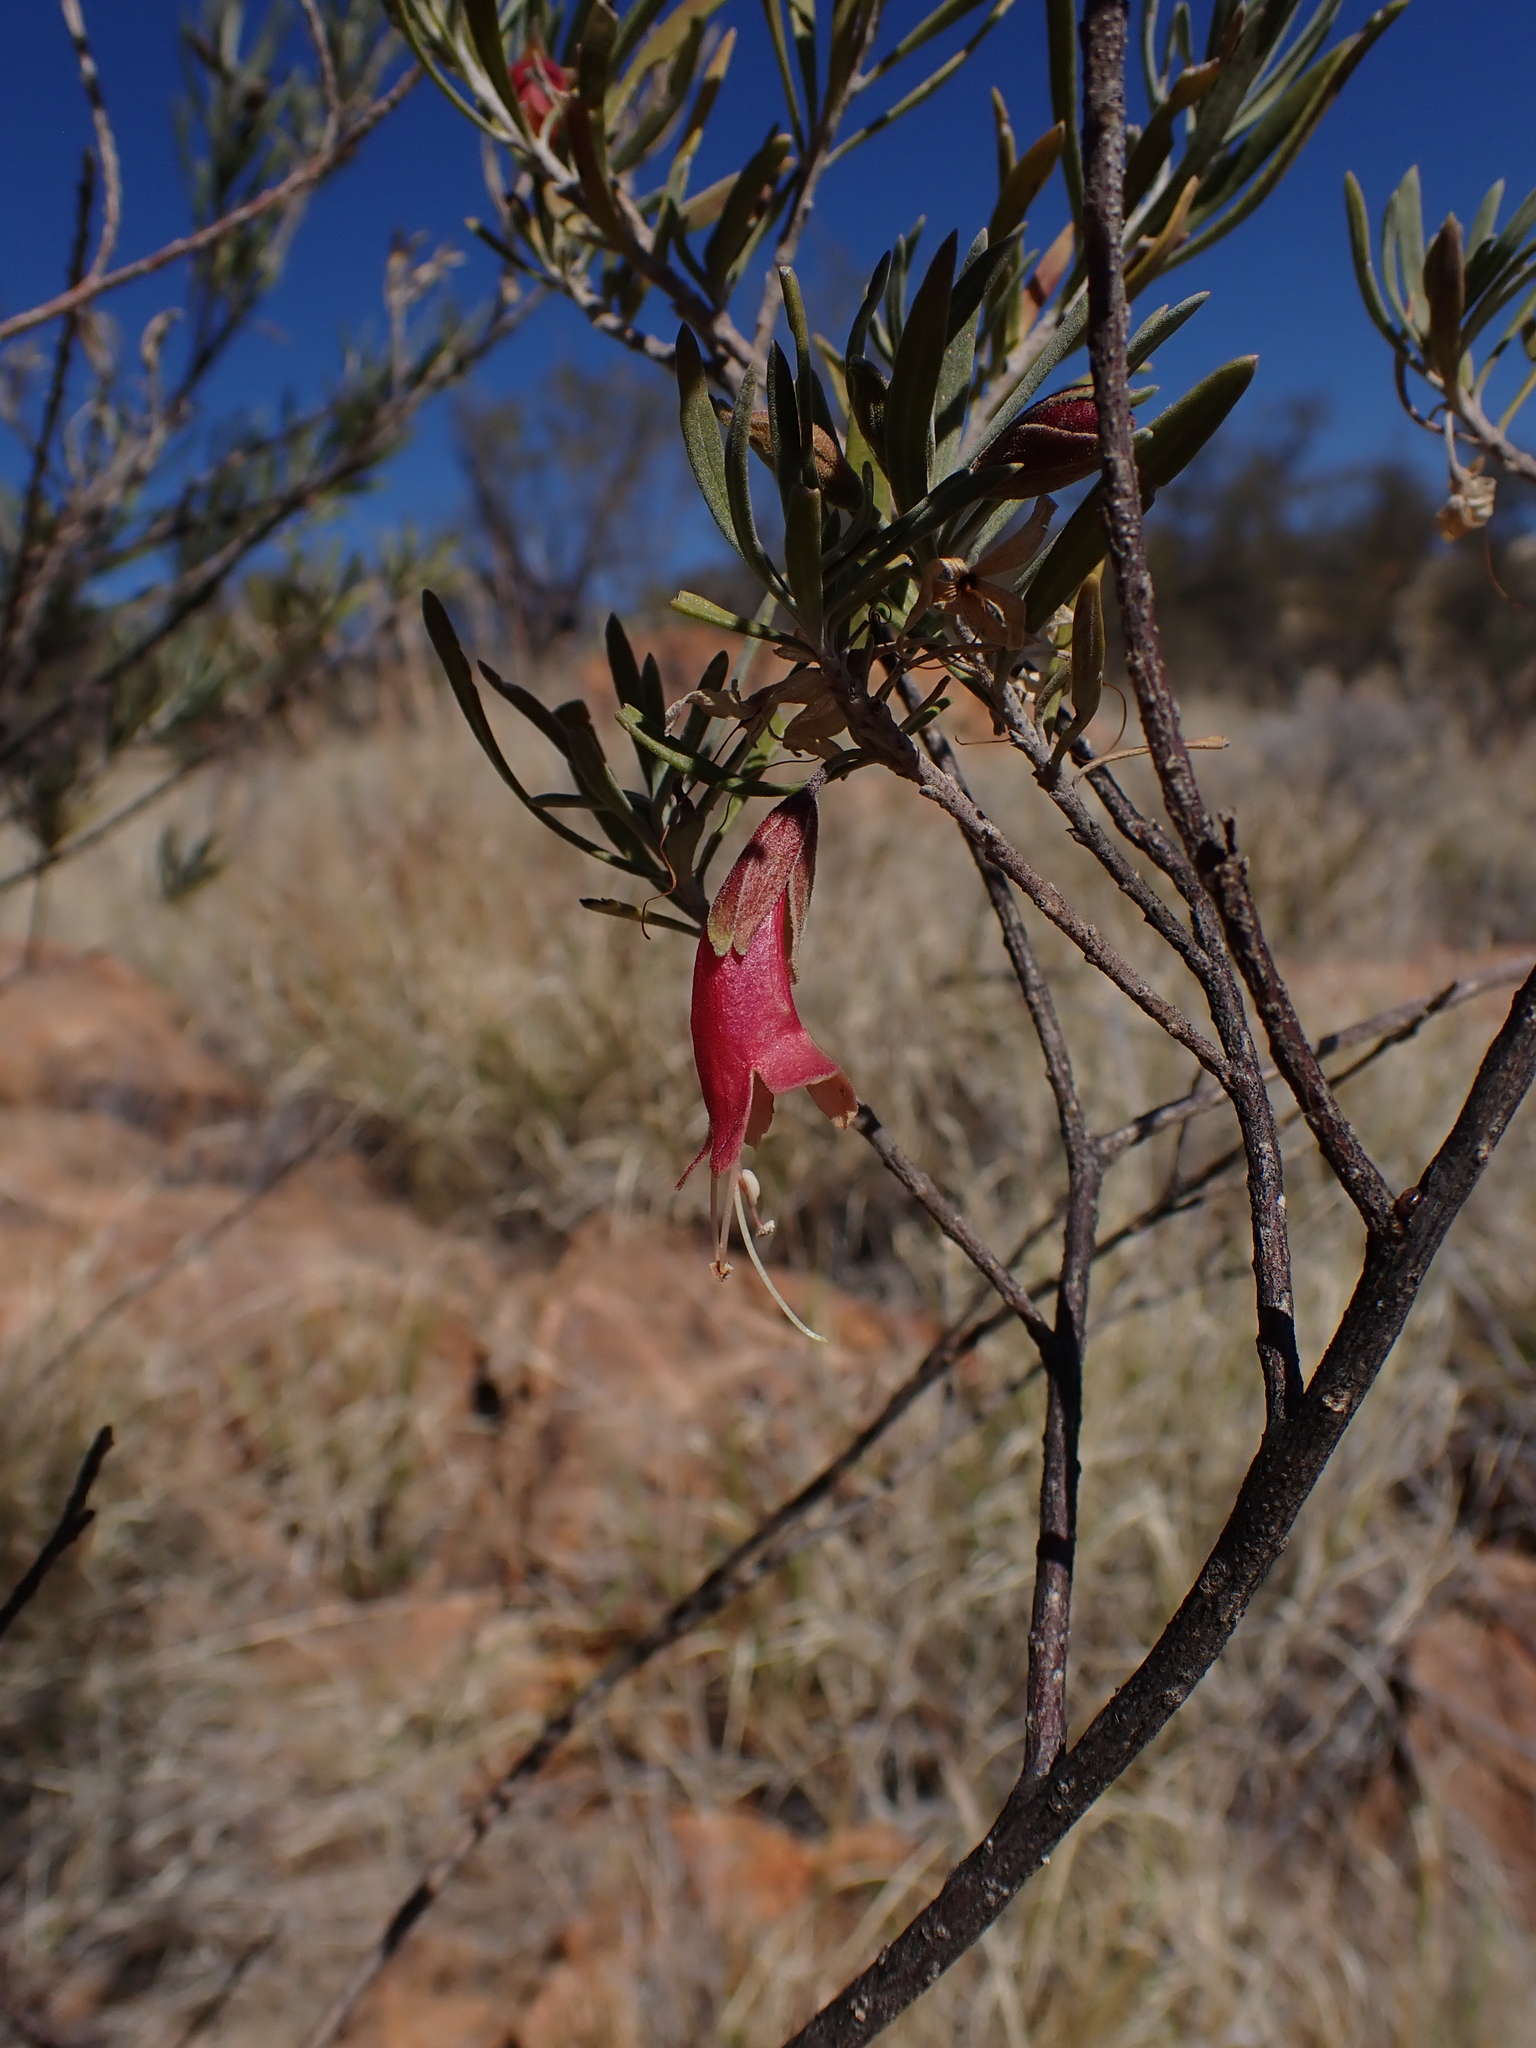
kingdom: Plantae
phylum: Tracheophyta
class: Magnoliopsida
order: Lamiales
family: Scrophulariaceae
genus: Eremophila
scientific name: Eremophila latrobei
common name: Crimson turkeybush
